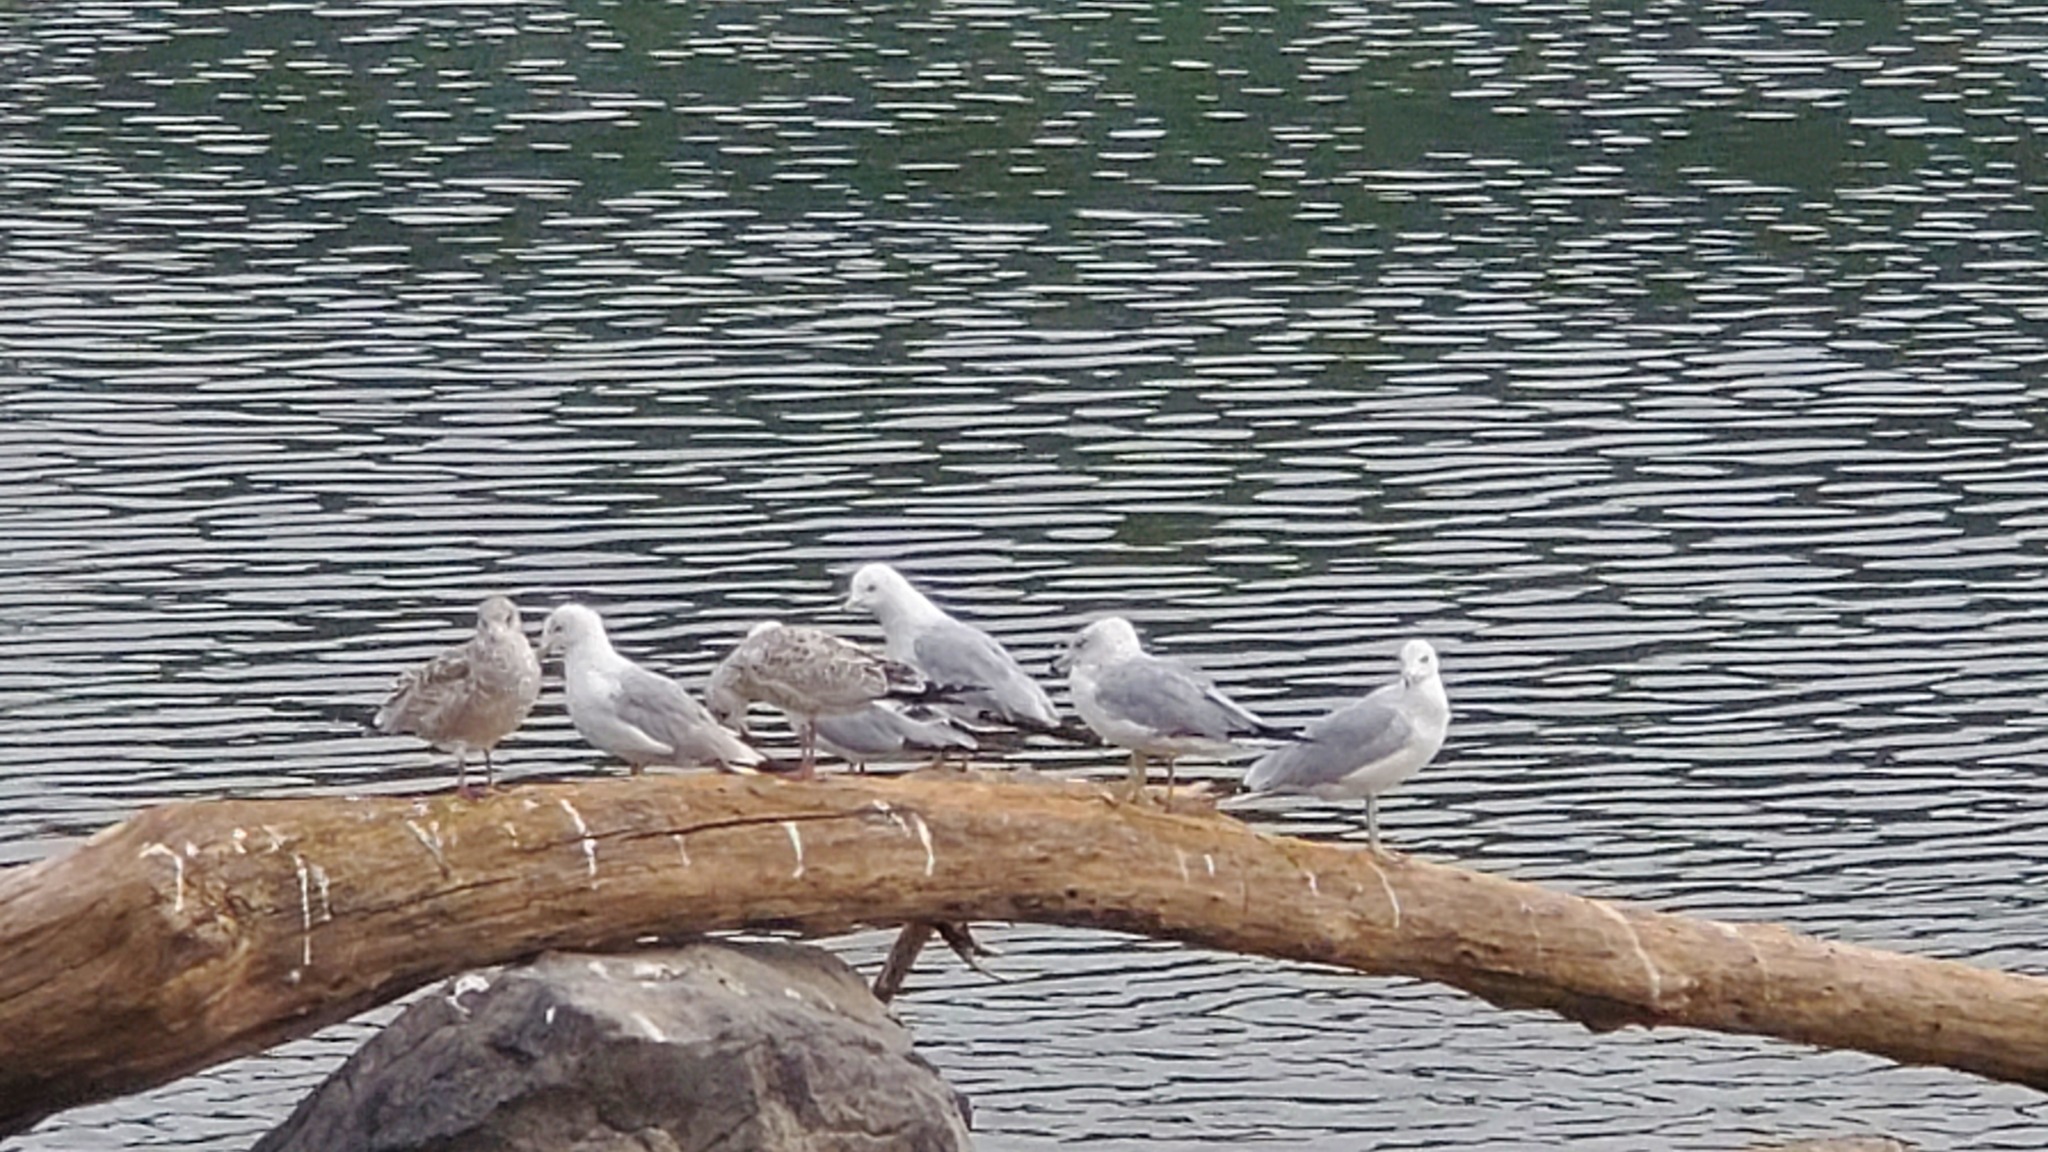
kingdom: Animalia
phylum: Chordata
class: Aves
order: Charadriiformes
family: Laridae
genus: Larus
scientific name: Larus delawarensis
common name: Ring-billed gull
